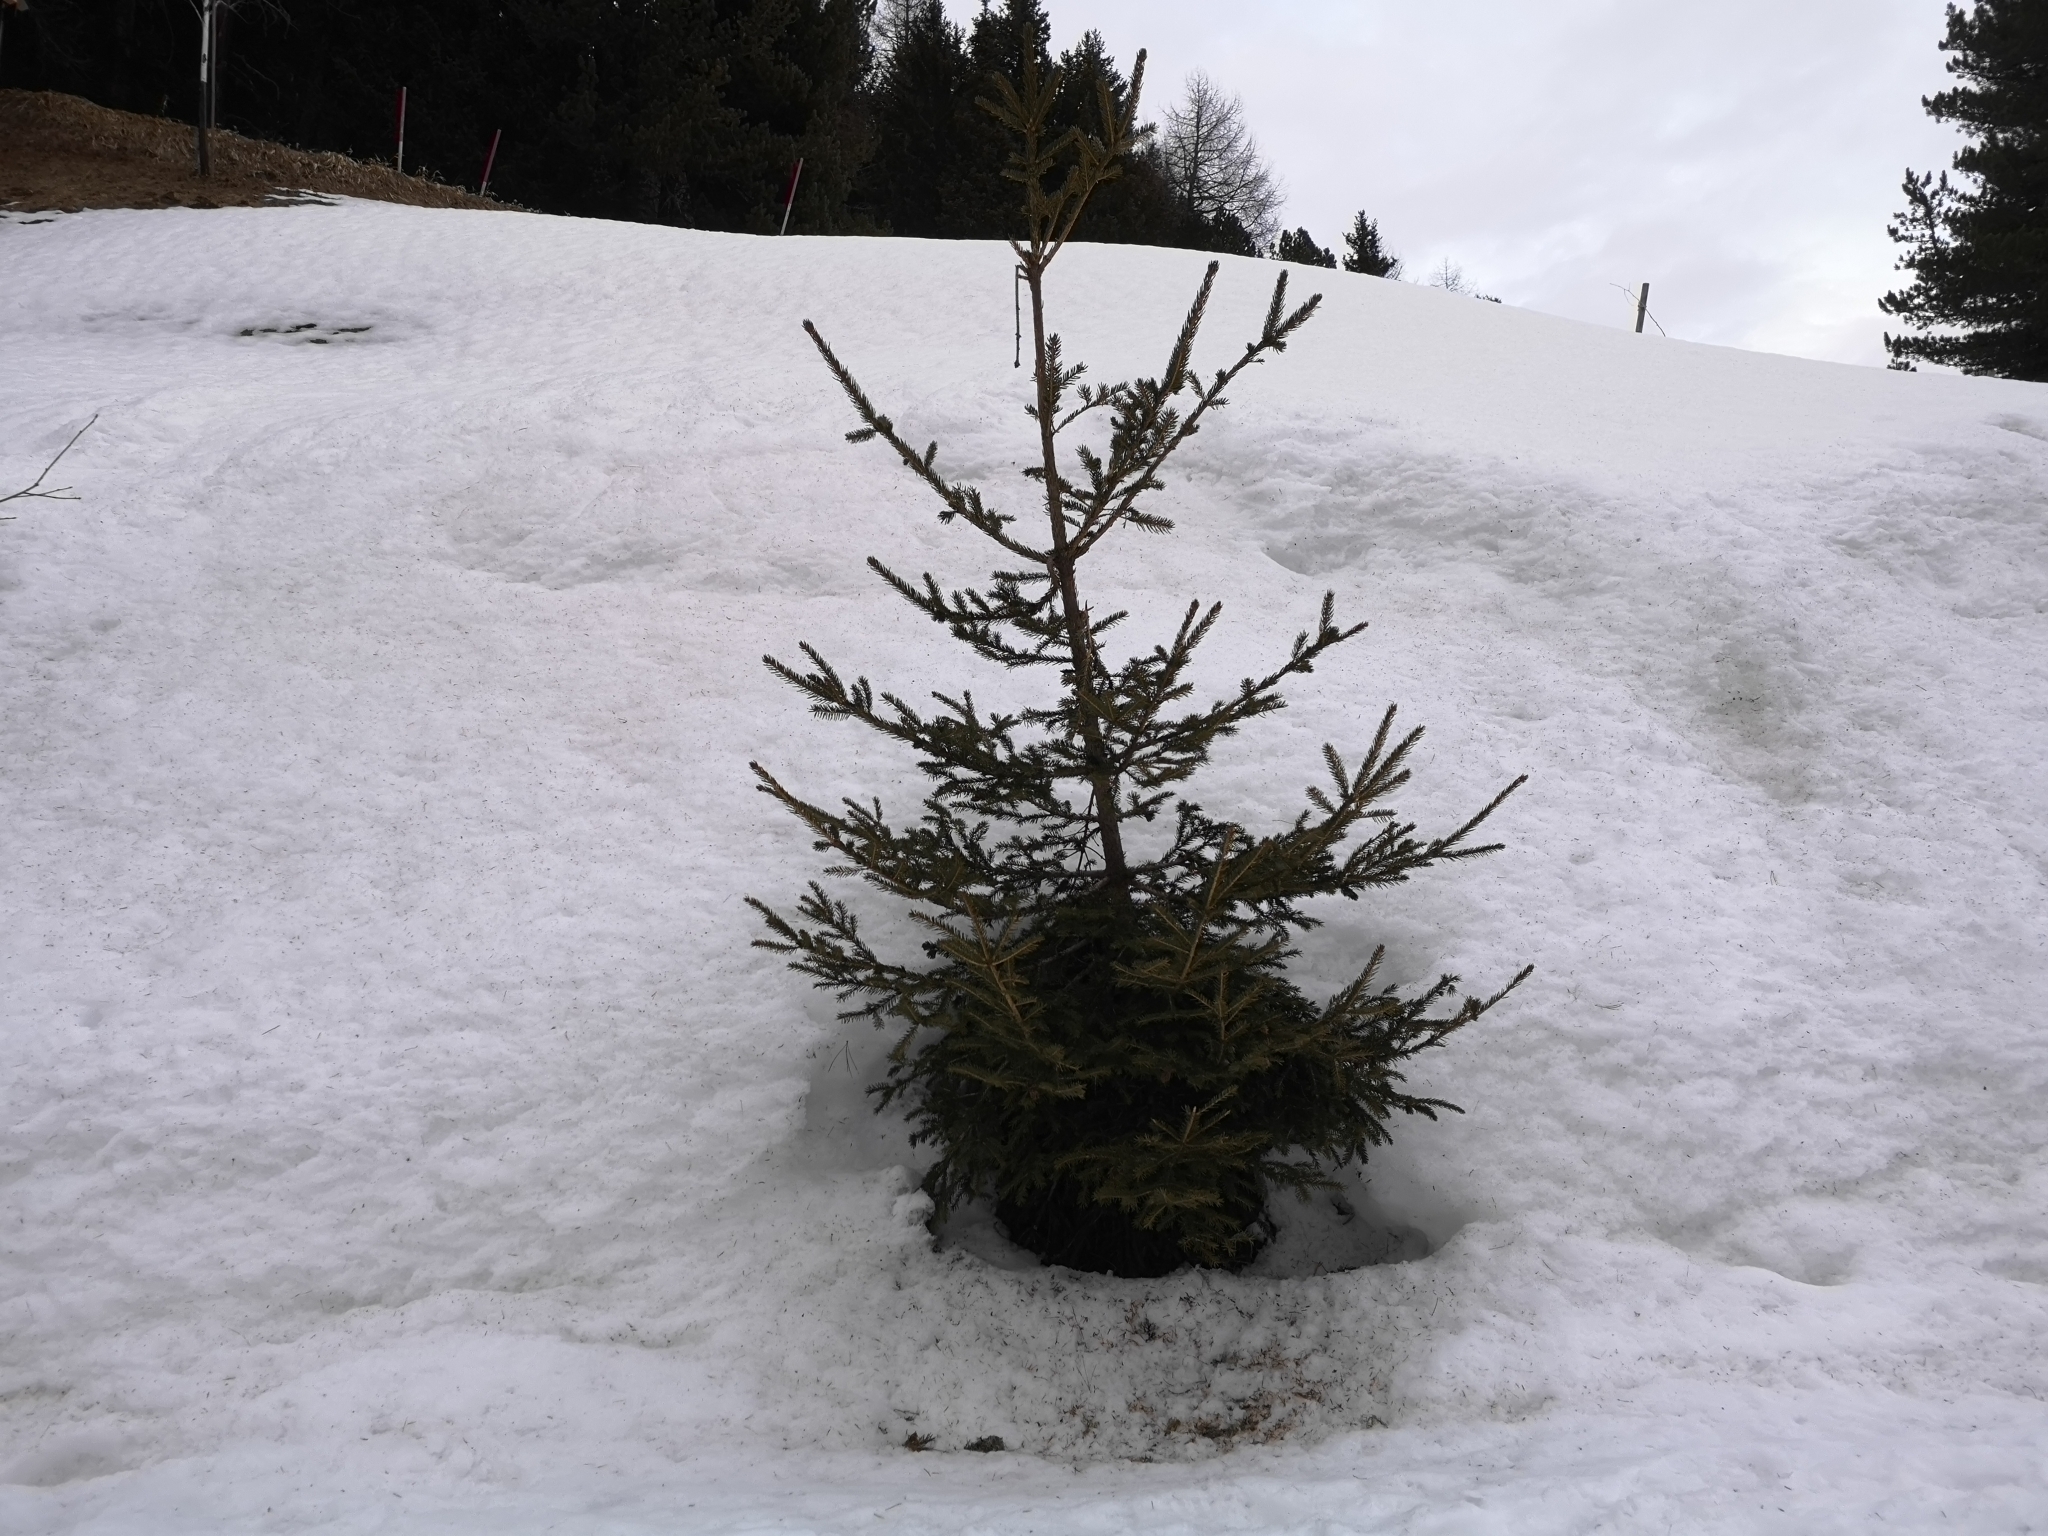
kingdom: Plantae
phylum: Tracheophyta
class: Pinopsida
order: Pinales
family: Pinaceae
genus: Picea
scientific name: Picea abies
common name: Norway spruce
